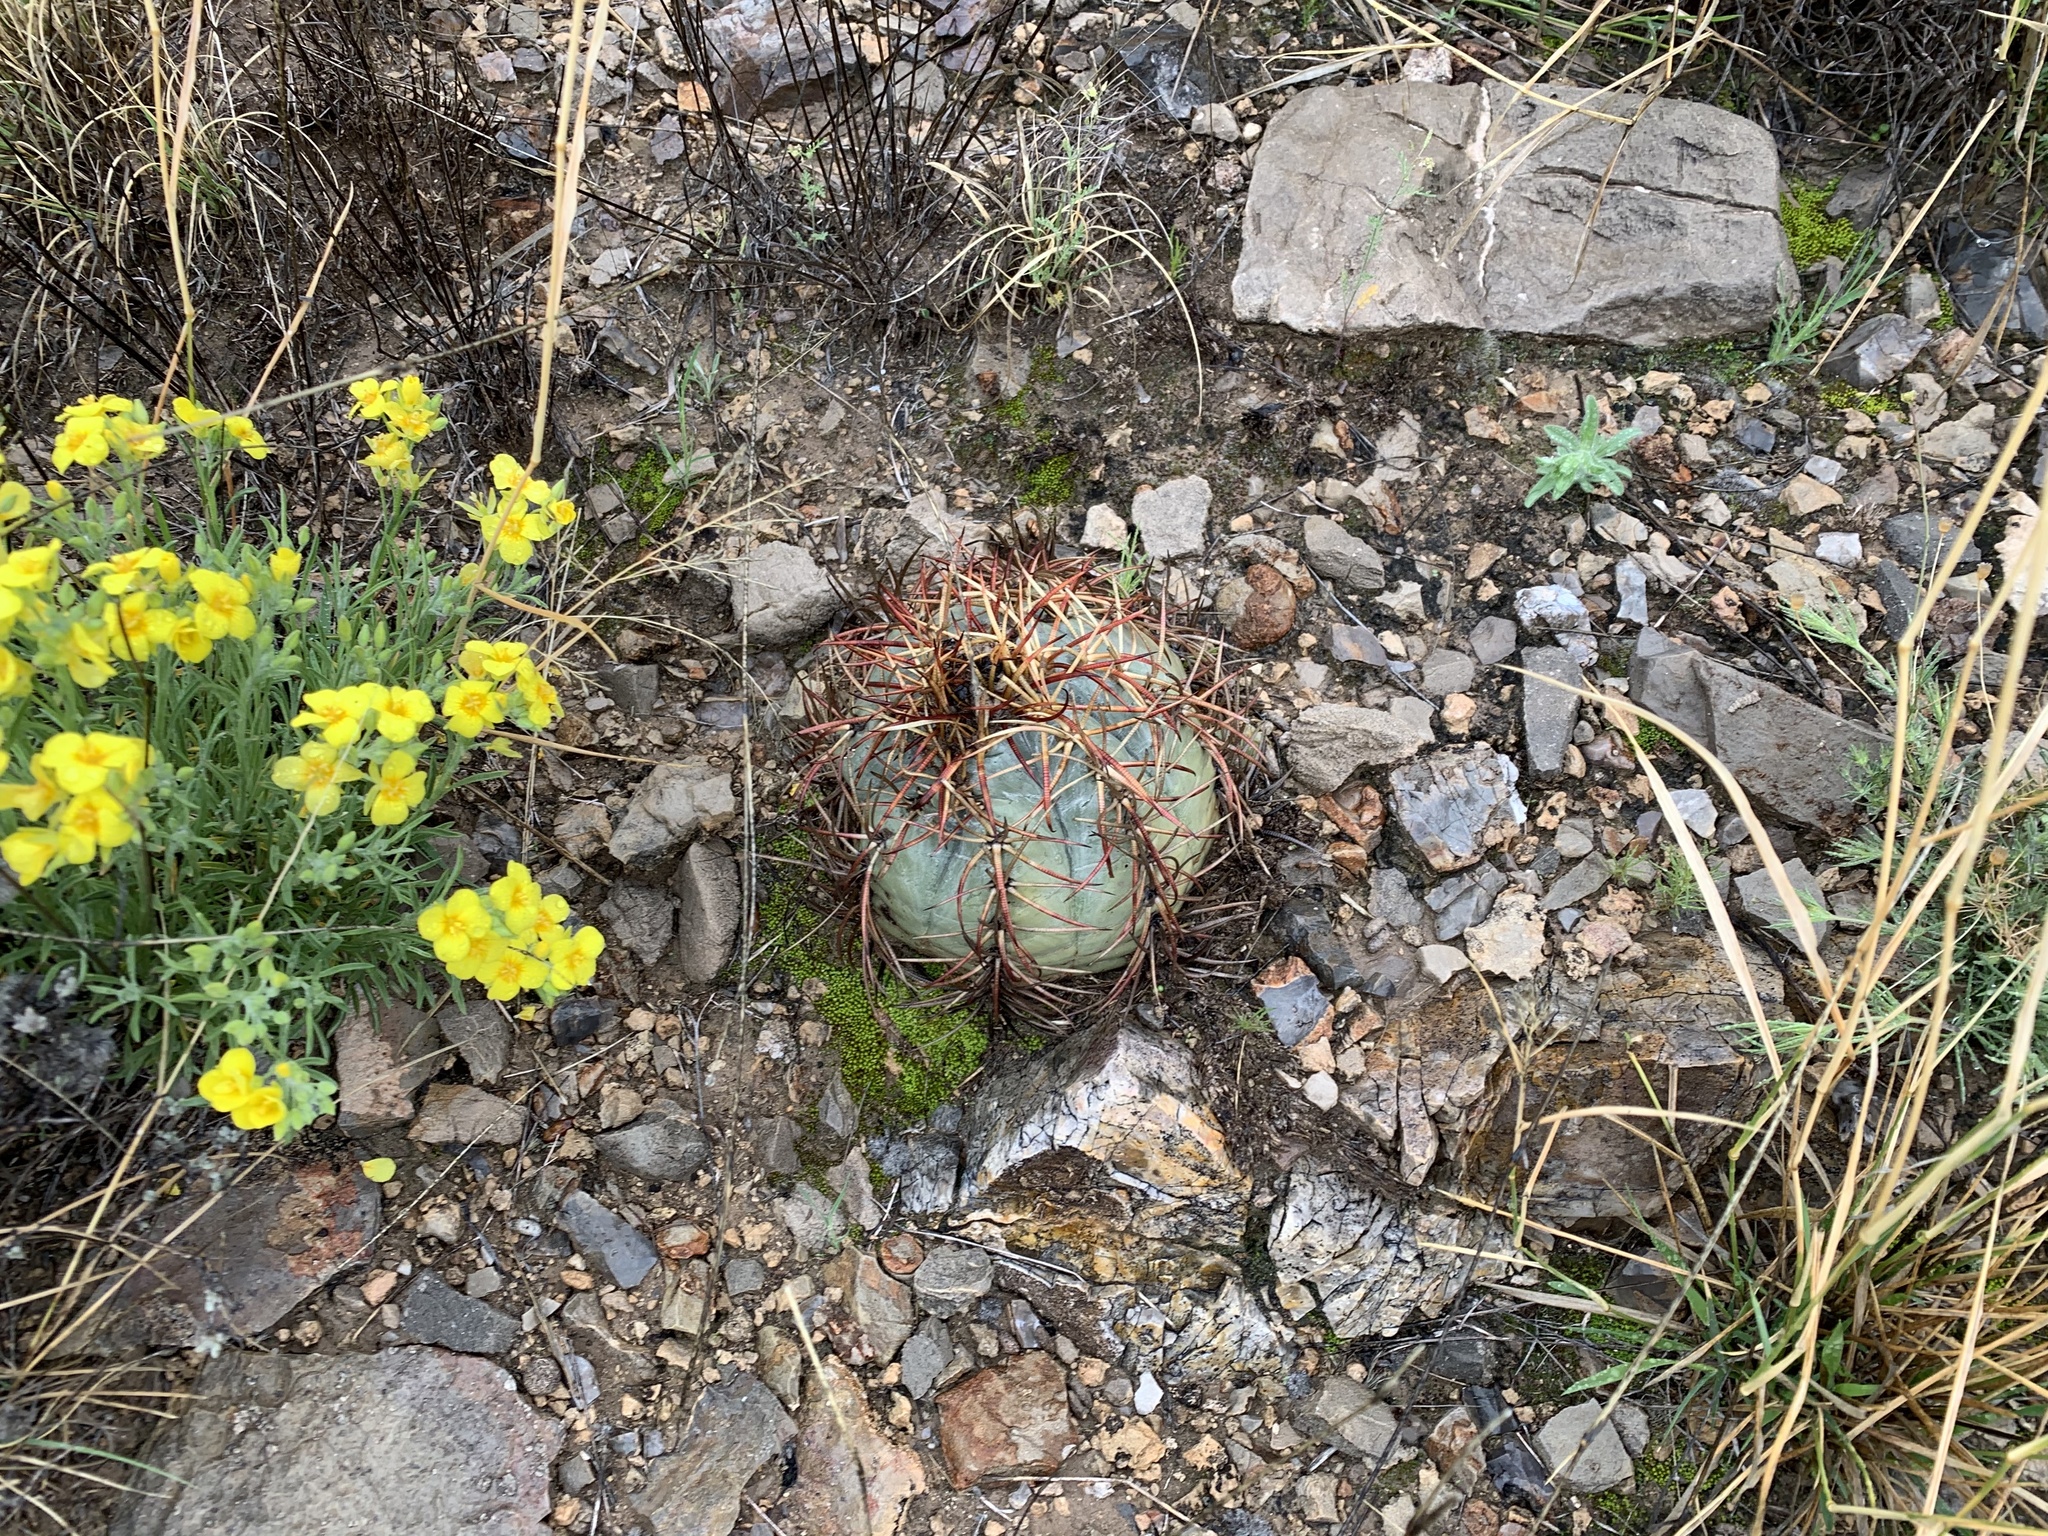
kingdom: Plantae
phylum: Tracheophyta
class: Magnoliopsida
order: Caryophyllales
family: Cactaceae
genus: Echinocactus
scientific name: Echinocactus horizonthalonius
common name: Devilshead
